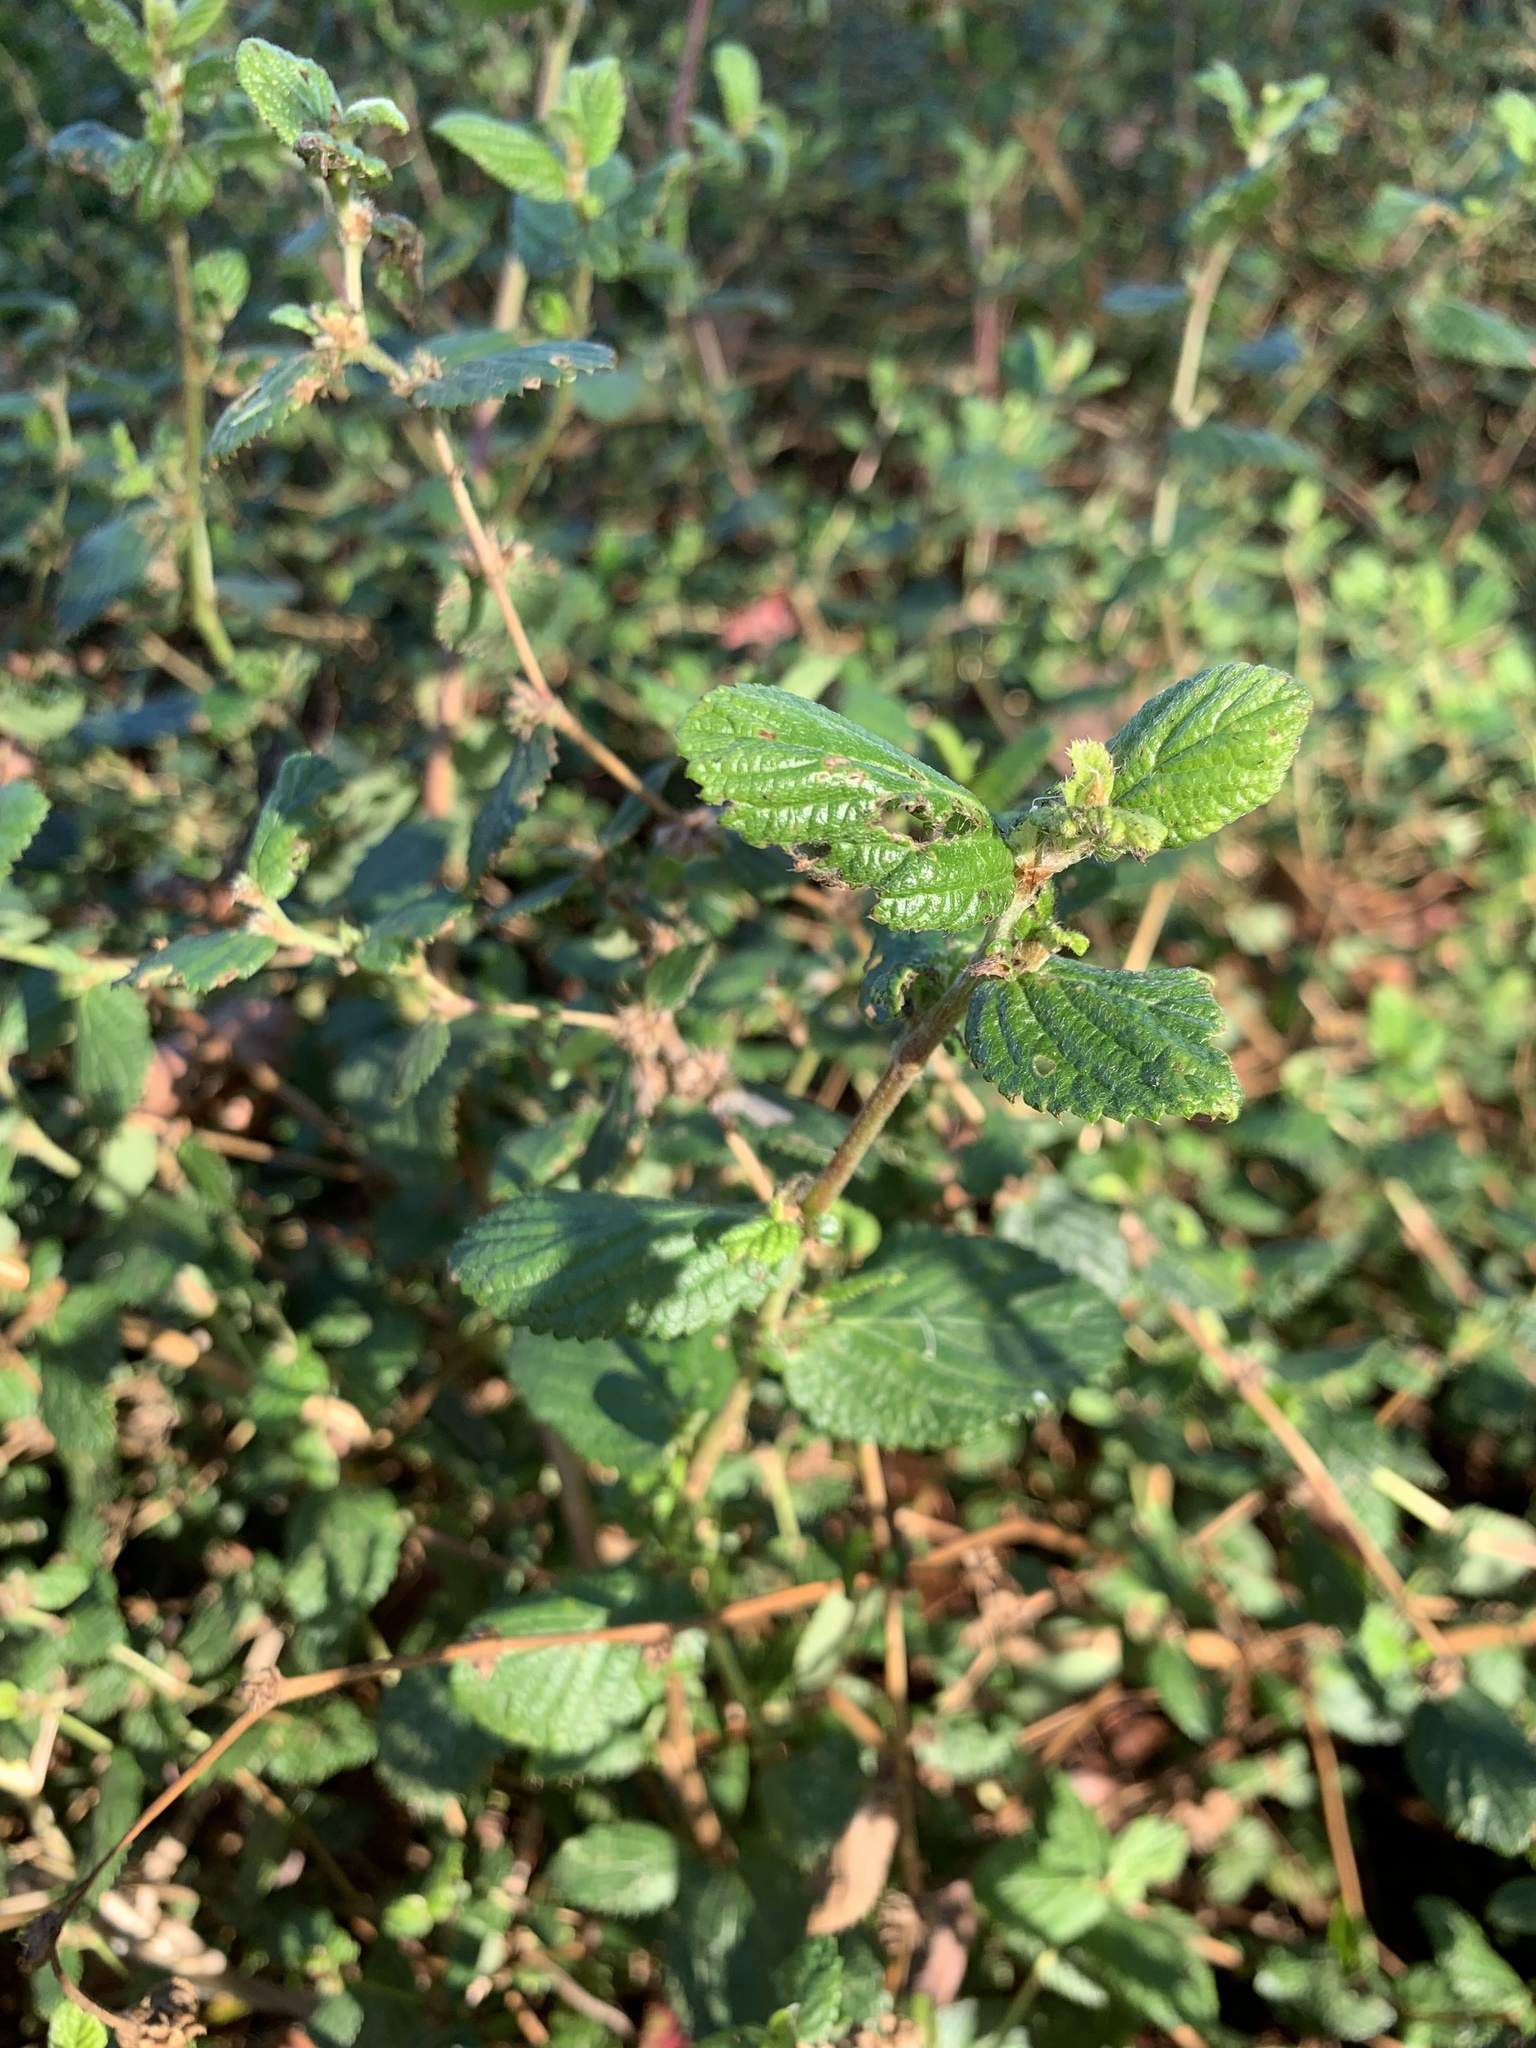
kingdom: Plantae
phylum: Tracheophyta
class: Magnoliopsida
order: Rosales
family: Rosaceae
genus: Cliffortia
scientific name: Cliffortia odorata
